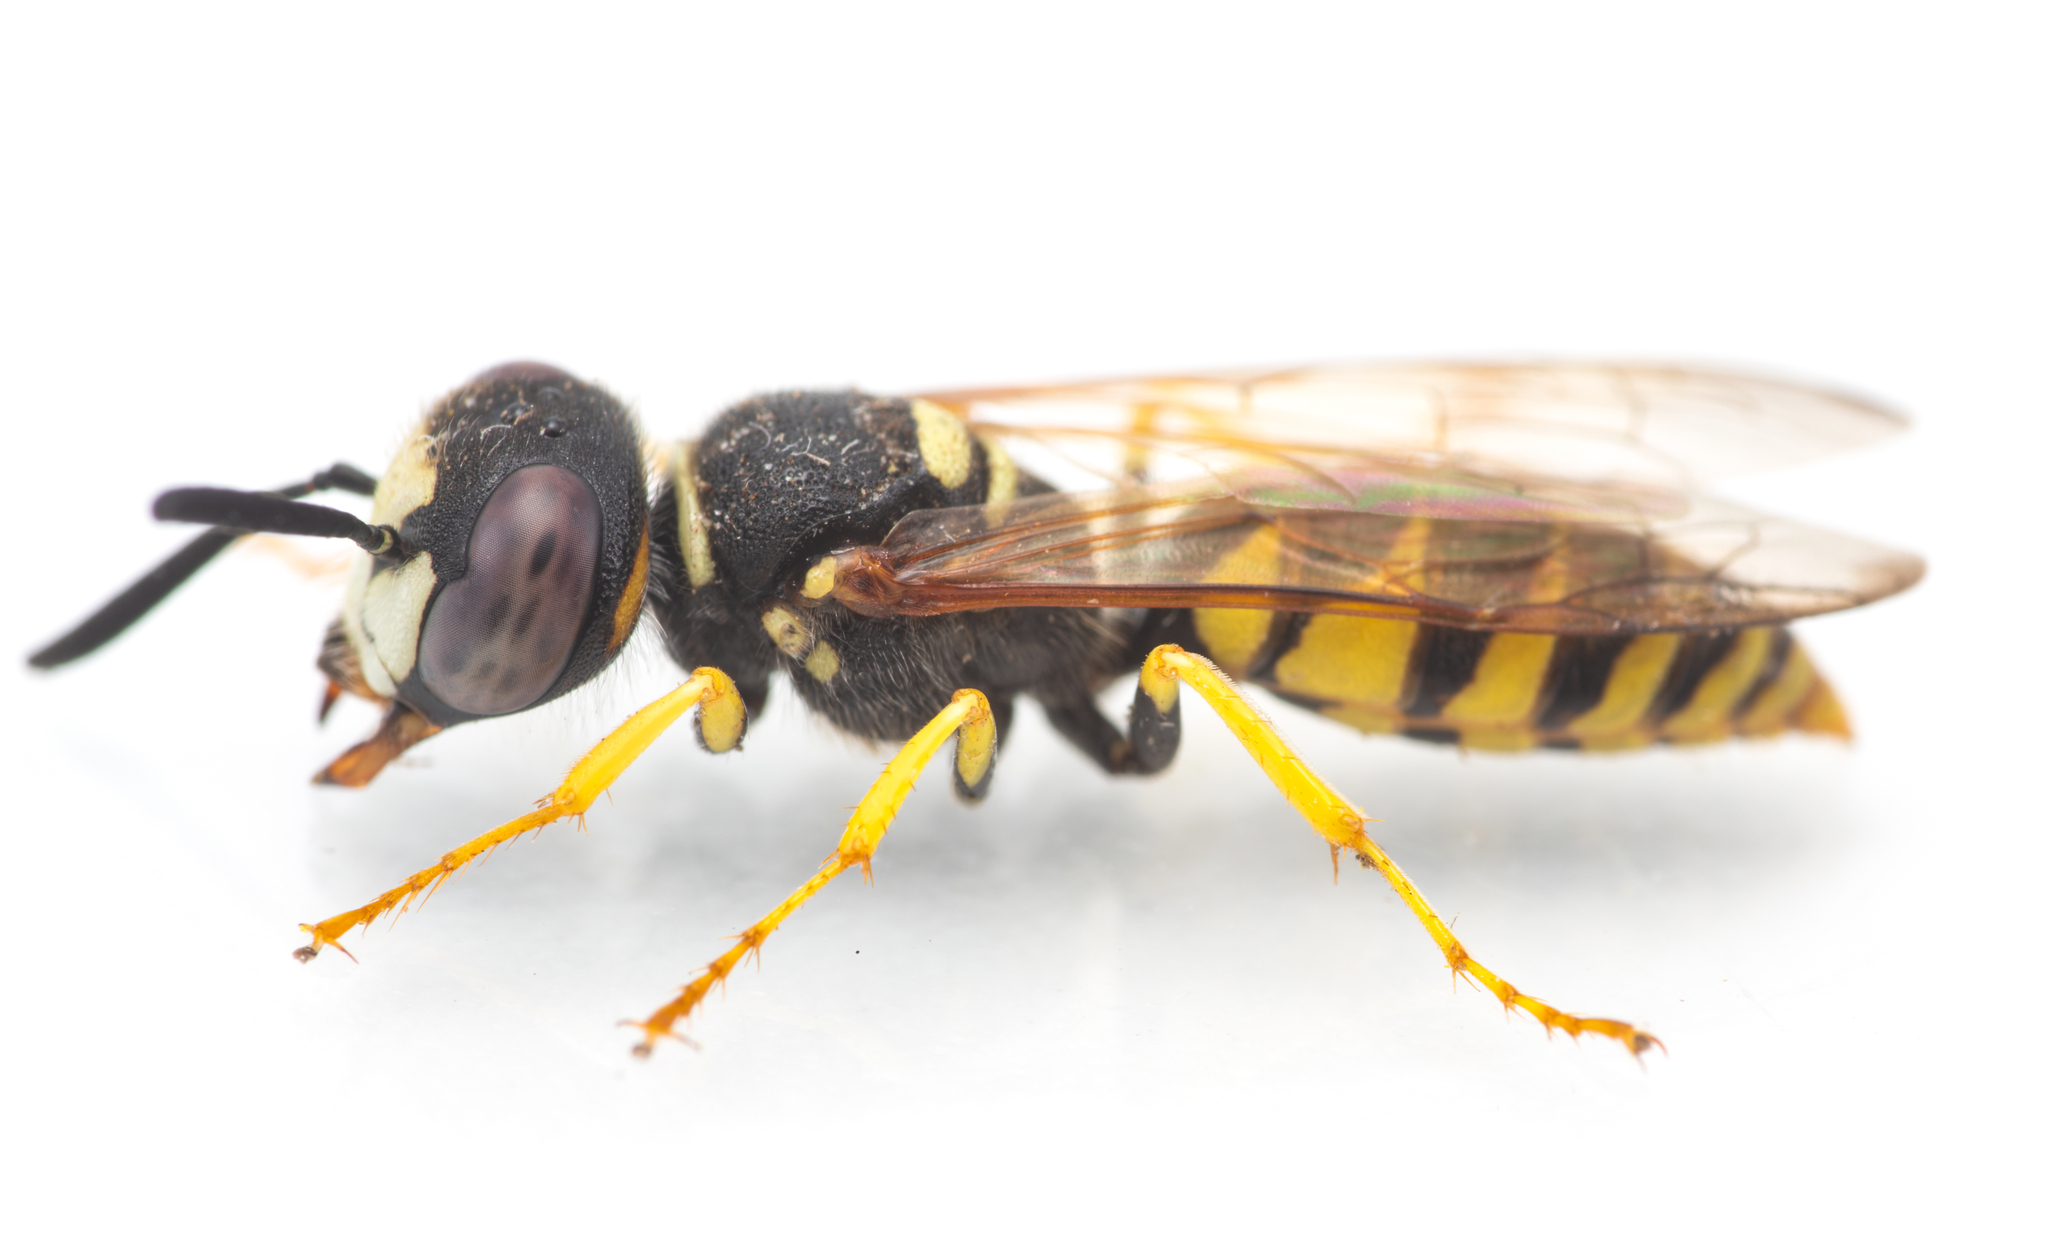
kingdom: Animalia
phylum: Arthropoda
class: Insecta
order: Hymenoptera
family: Crabronidae
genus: Philanthus
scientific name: Philanthus triangulum
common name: Bee wolf
